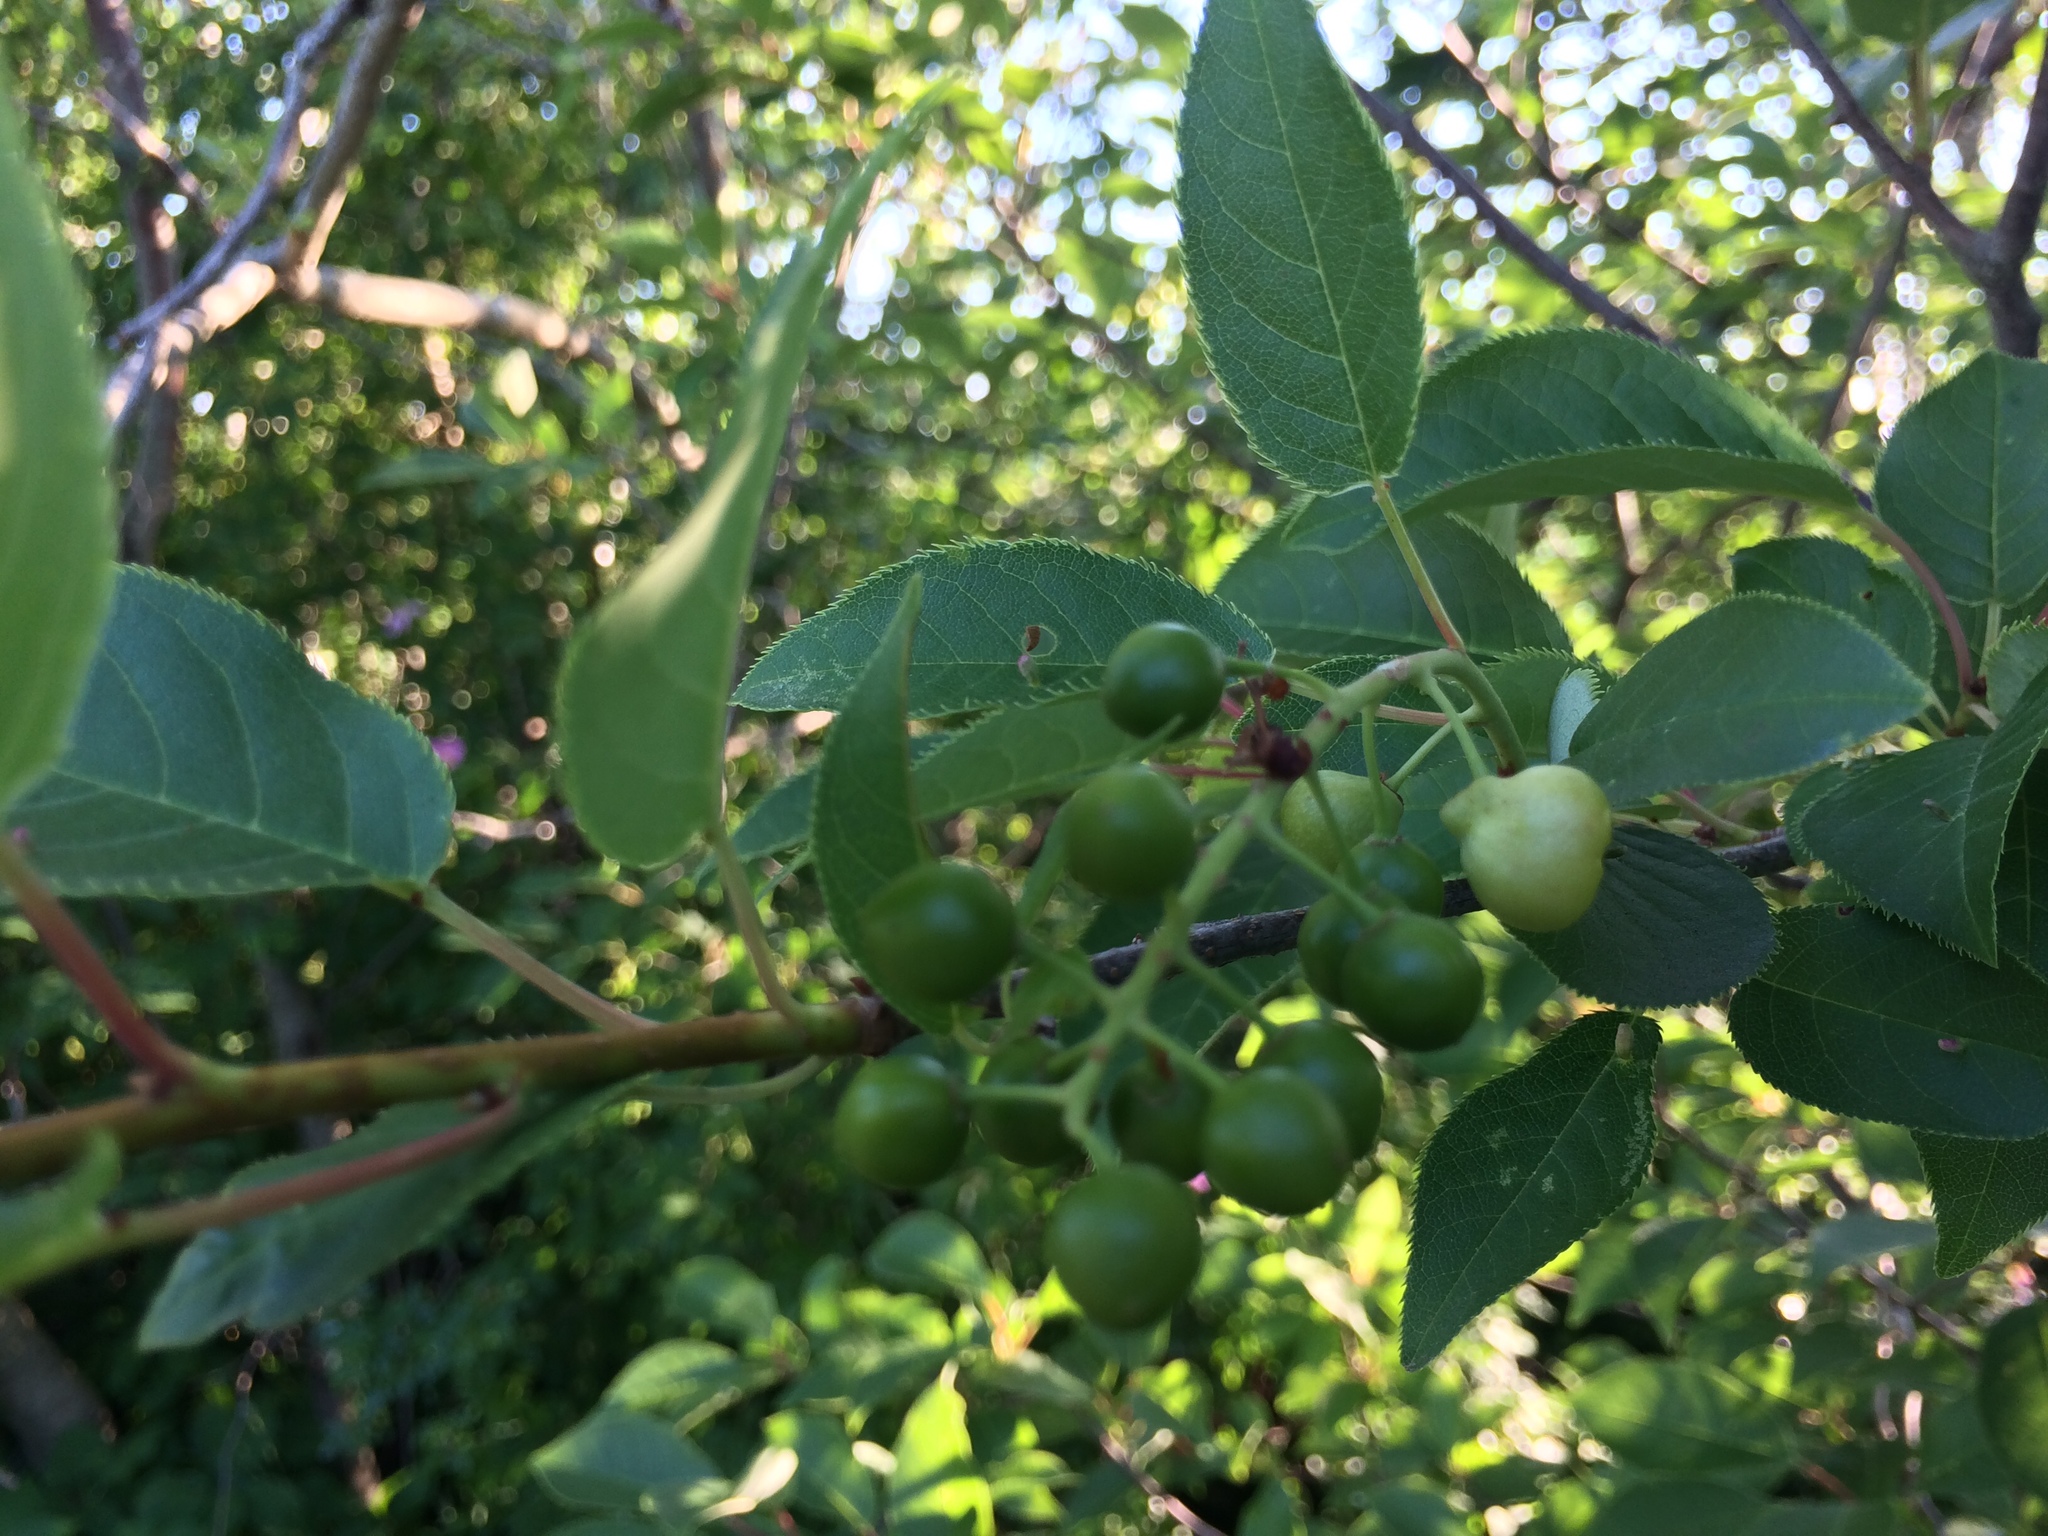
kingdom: Plantae
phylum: Tracheophyta
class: Magnoliopsida
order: Rosales
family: Rosaceae
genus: Prunus
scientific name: Prunus virginiana
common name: Chokecherry
